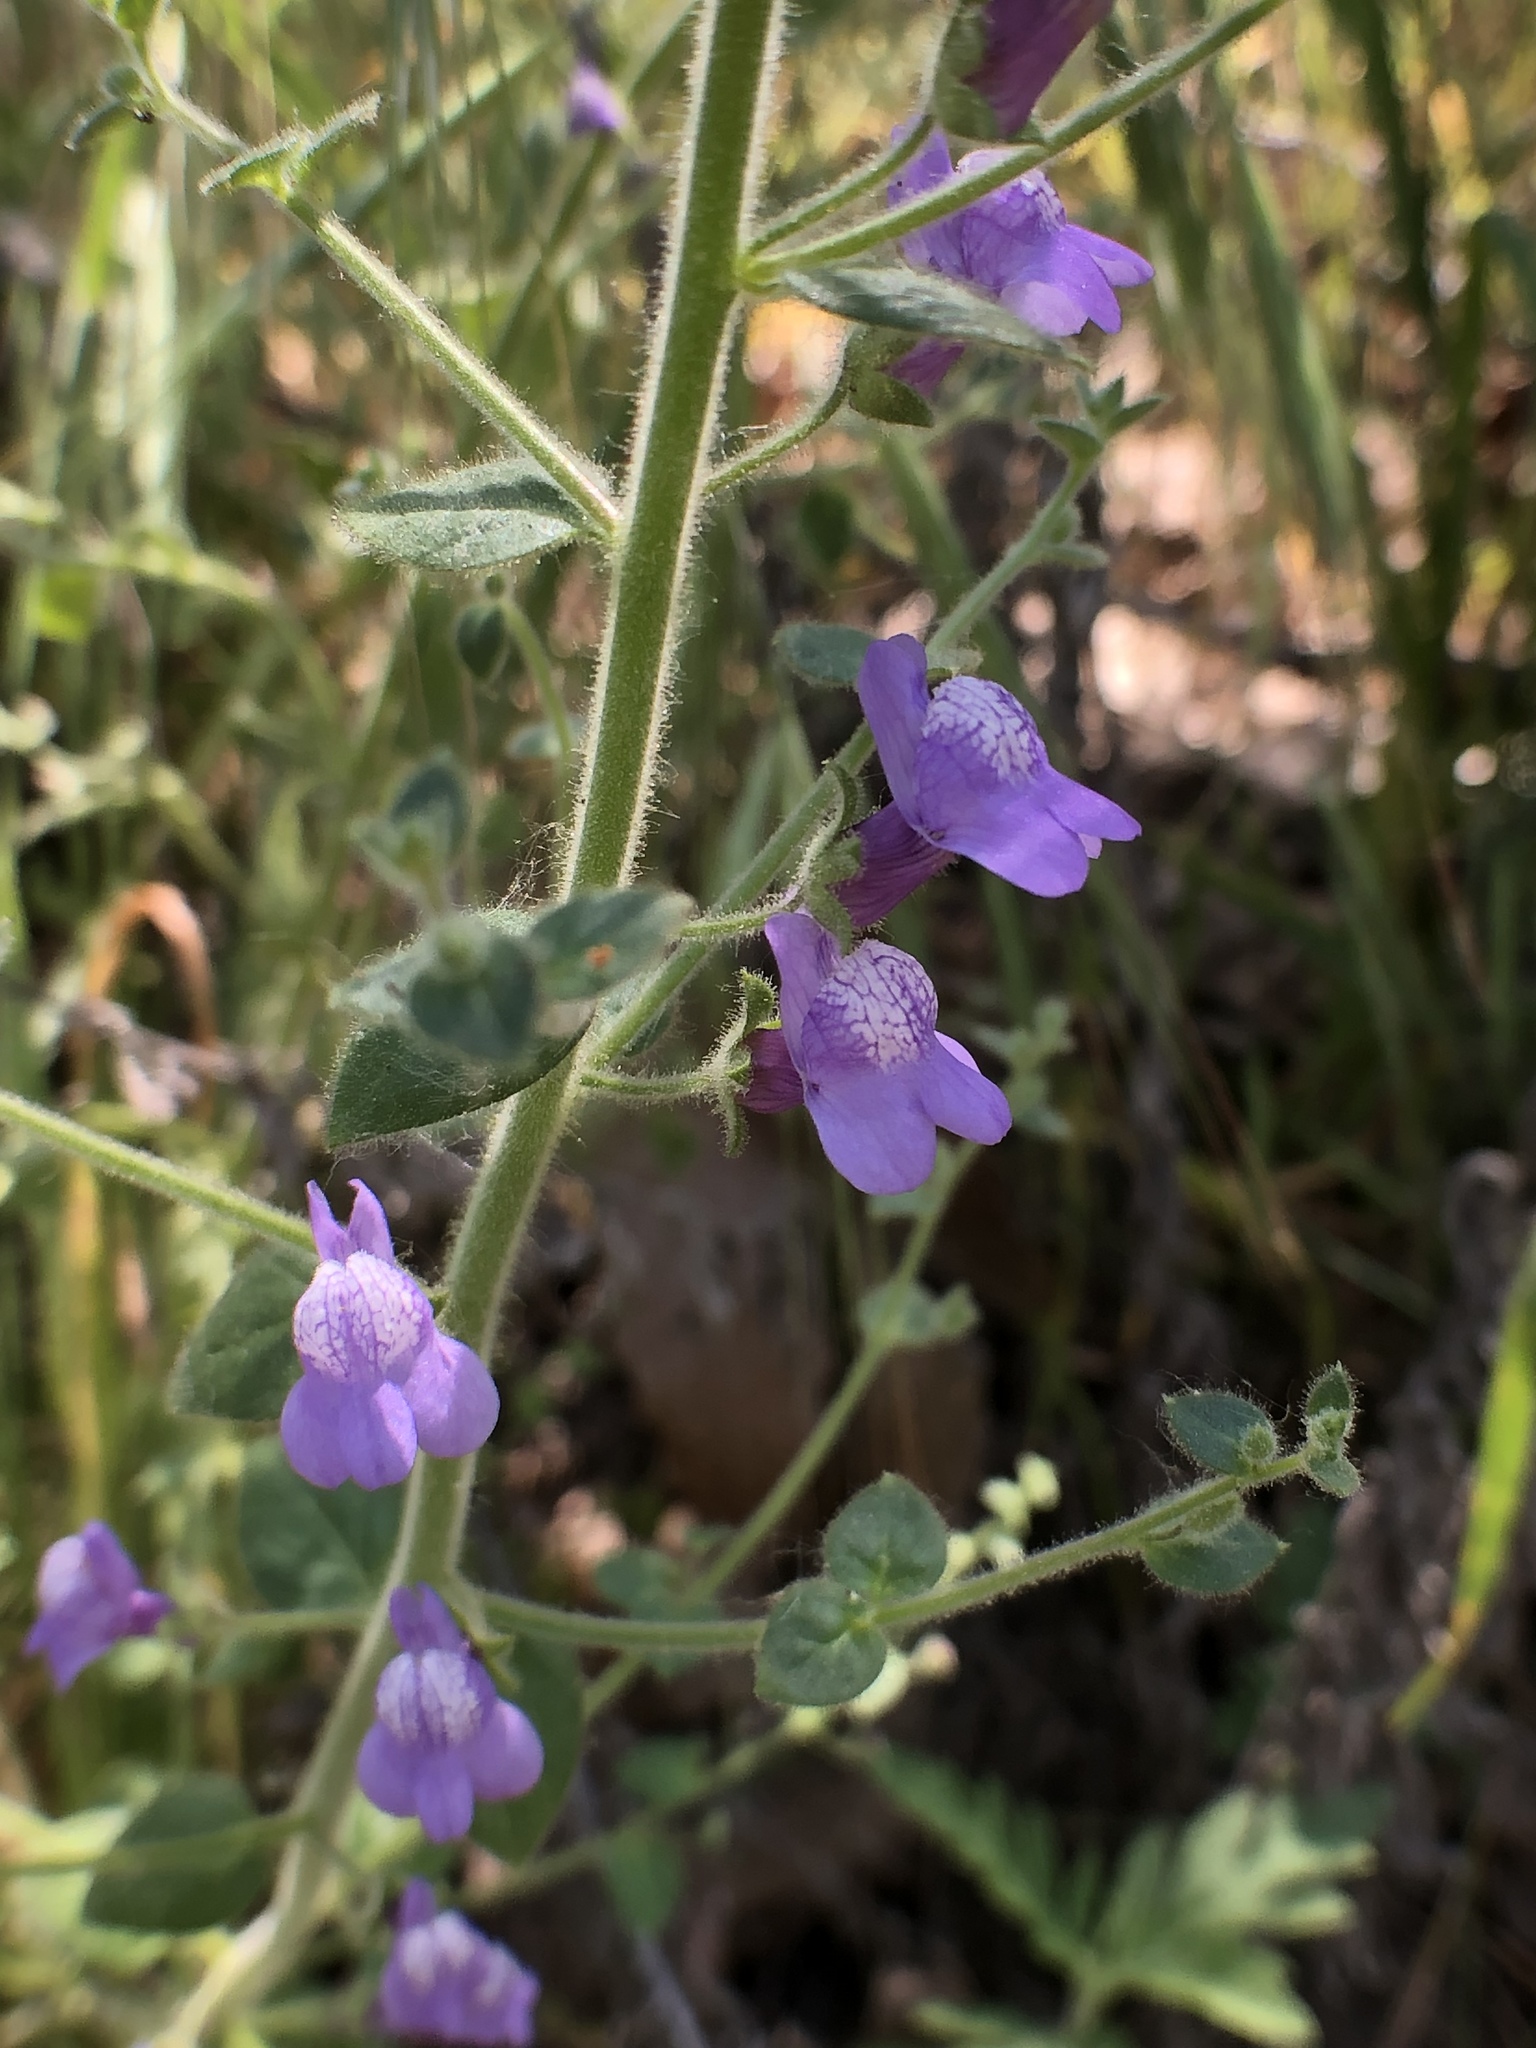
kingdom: Plantae
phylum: Tracheophyta
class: Magnoliopsida
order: Lamiales
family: Plantaginaceae
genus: Sairocarpus
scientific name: Sairocarpus nuttallianus
